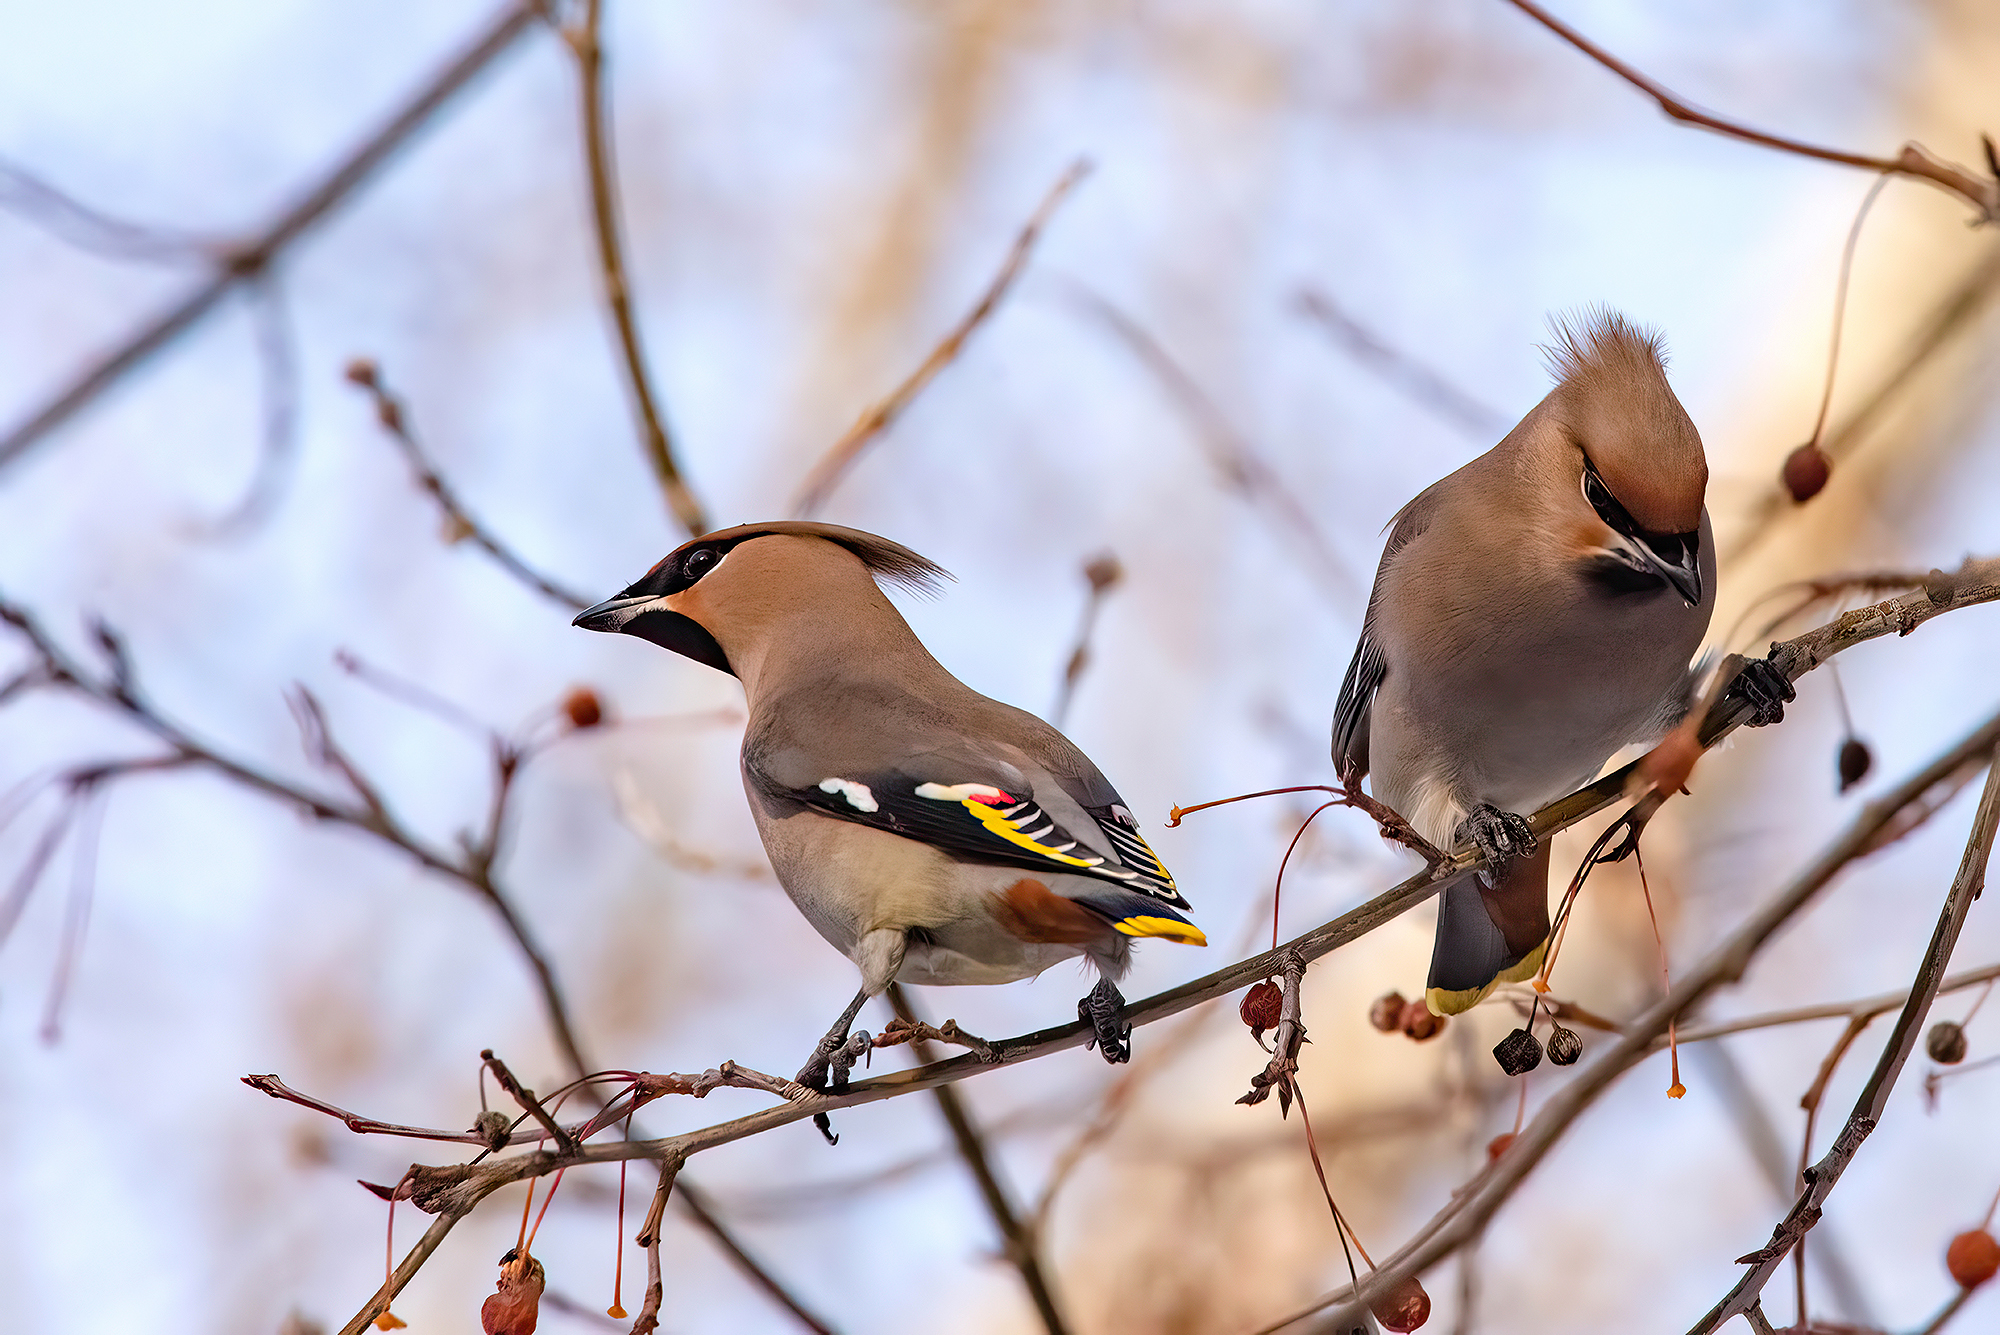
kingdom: Animalia
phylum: Chordata
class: Aves
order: Passeriformes
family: Bombycillidae
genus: Bombycilla
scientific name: Bombycilla garrulus
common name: Bohemian waxwing
